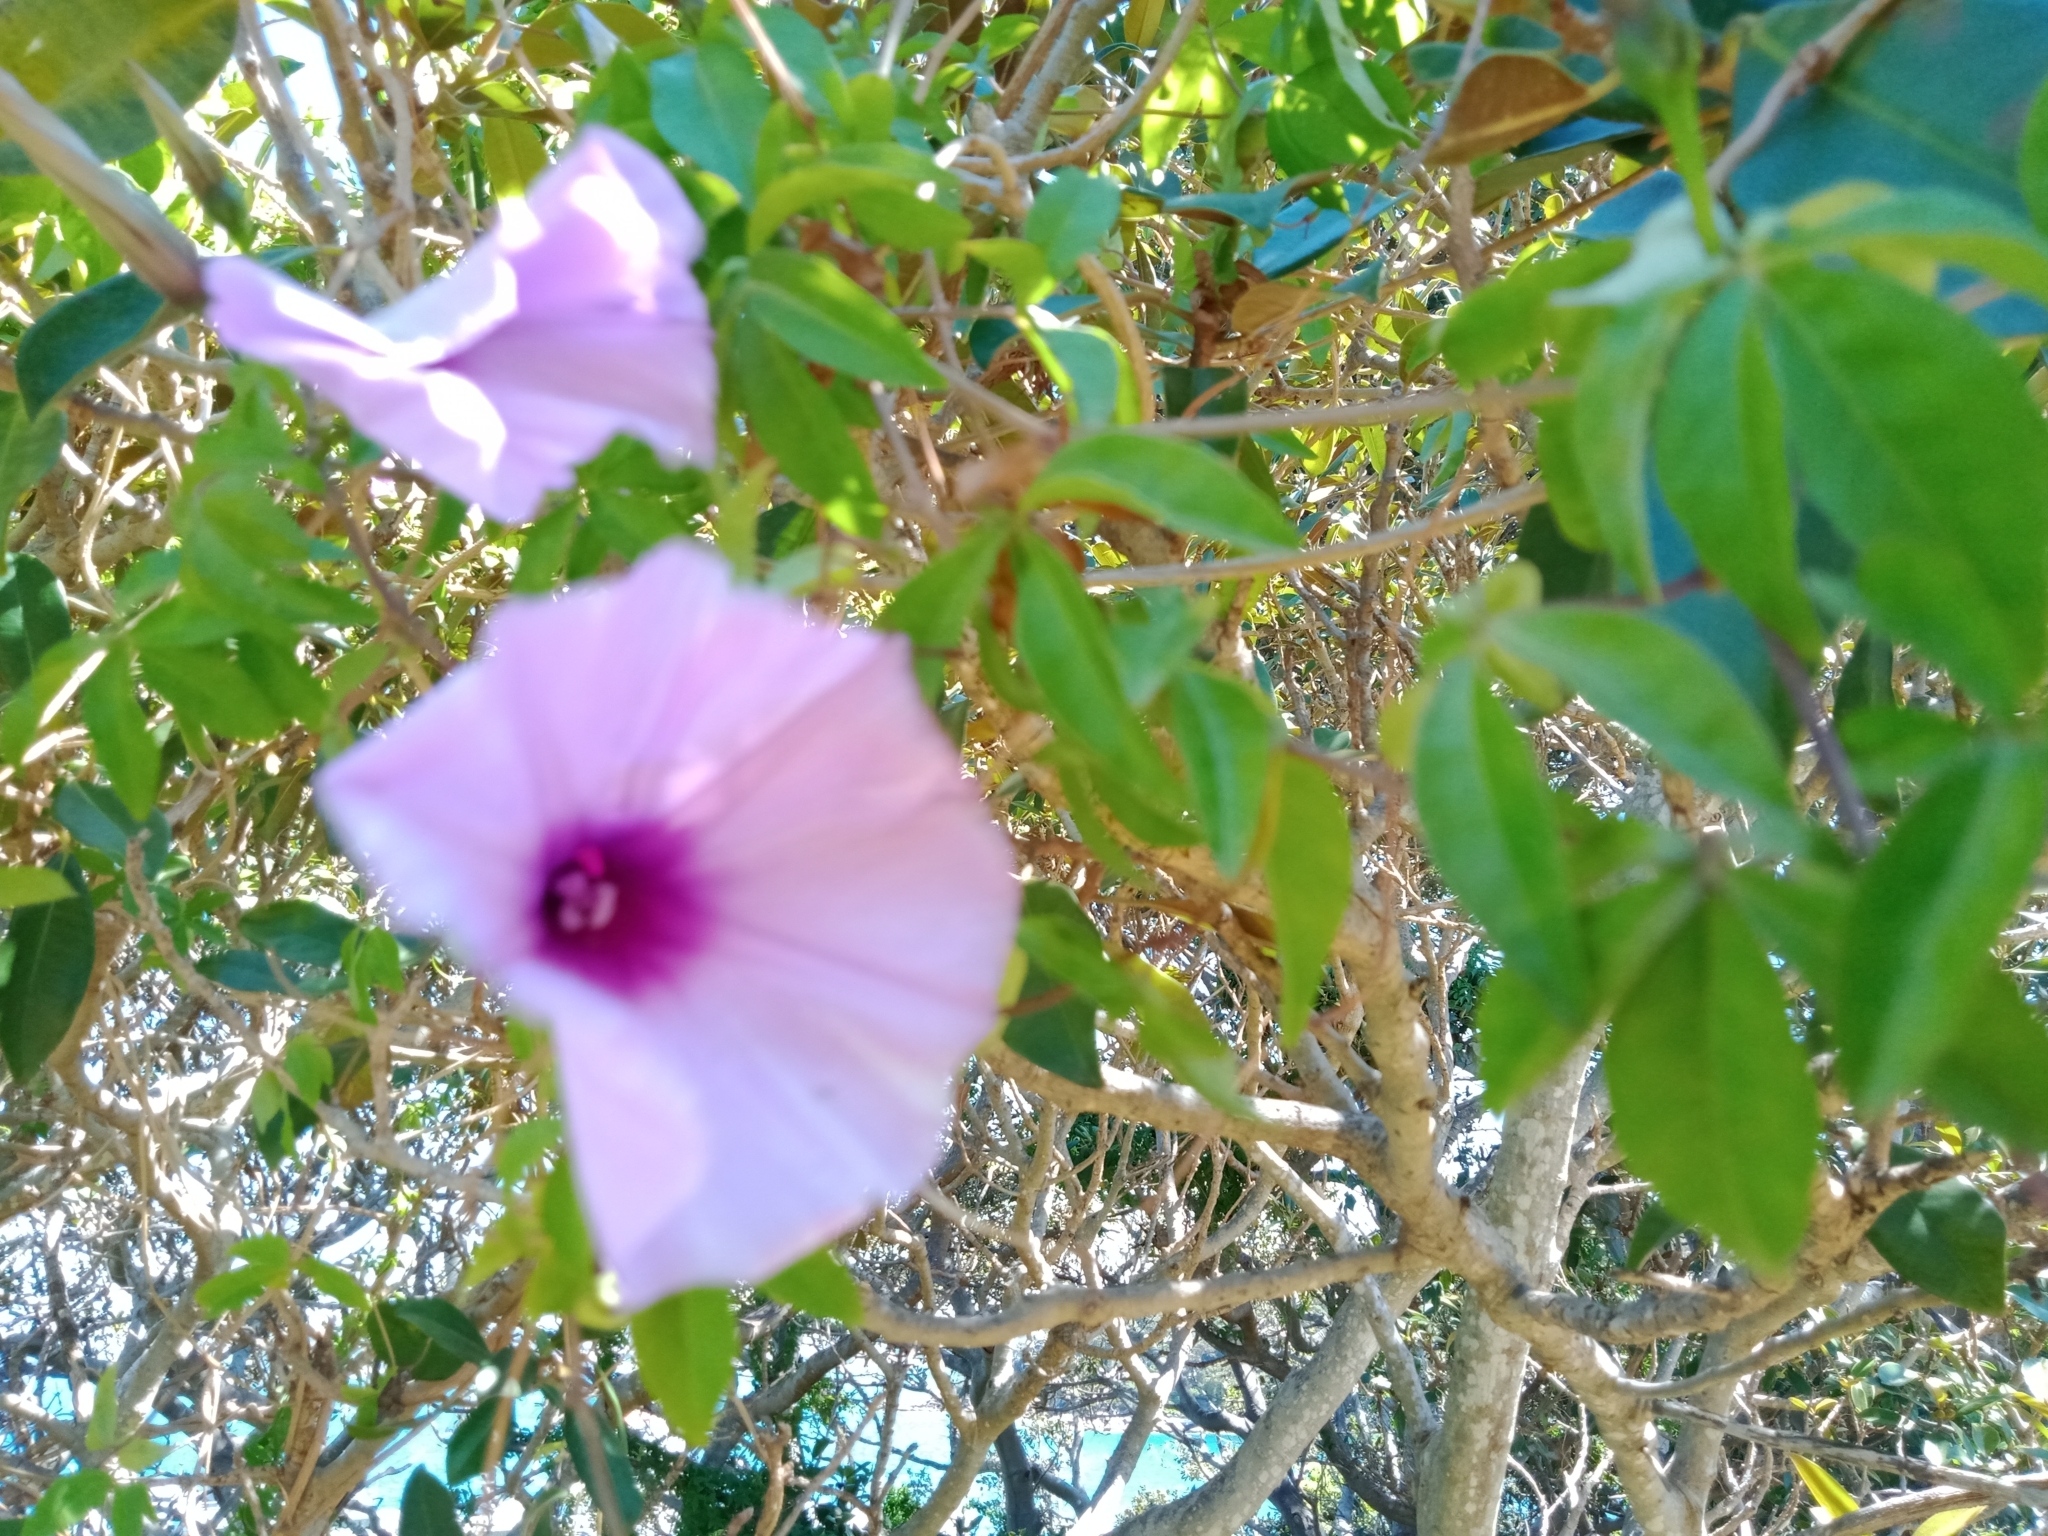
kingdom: Plantae
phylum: Tracheophyta
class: Magnoliopsida
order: Solanales
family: Convolvulaceae
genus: Ipomoea
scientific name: Ipomoea cairica
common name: Mile a minute vine
